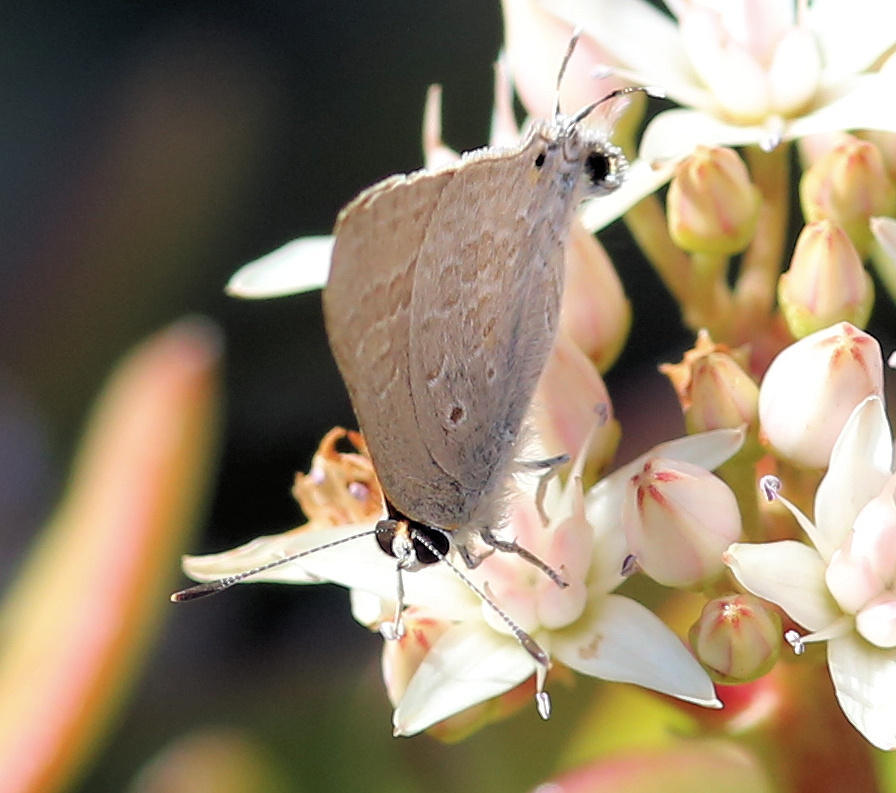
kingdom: Animalia
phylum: Arthropoda
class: Insecta
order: Lepidoptera
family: Lycaenidae
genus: Deudorix
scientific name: Deudorix antalus
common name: Brown playboy
